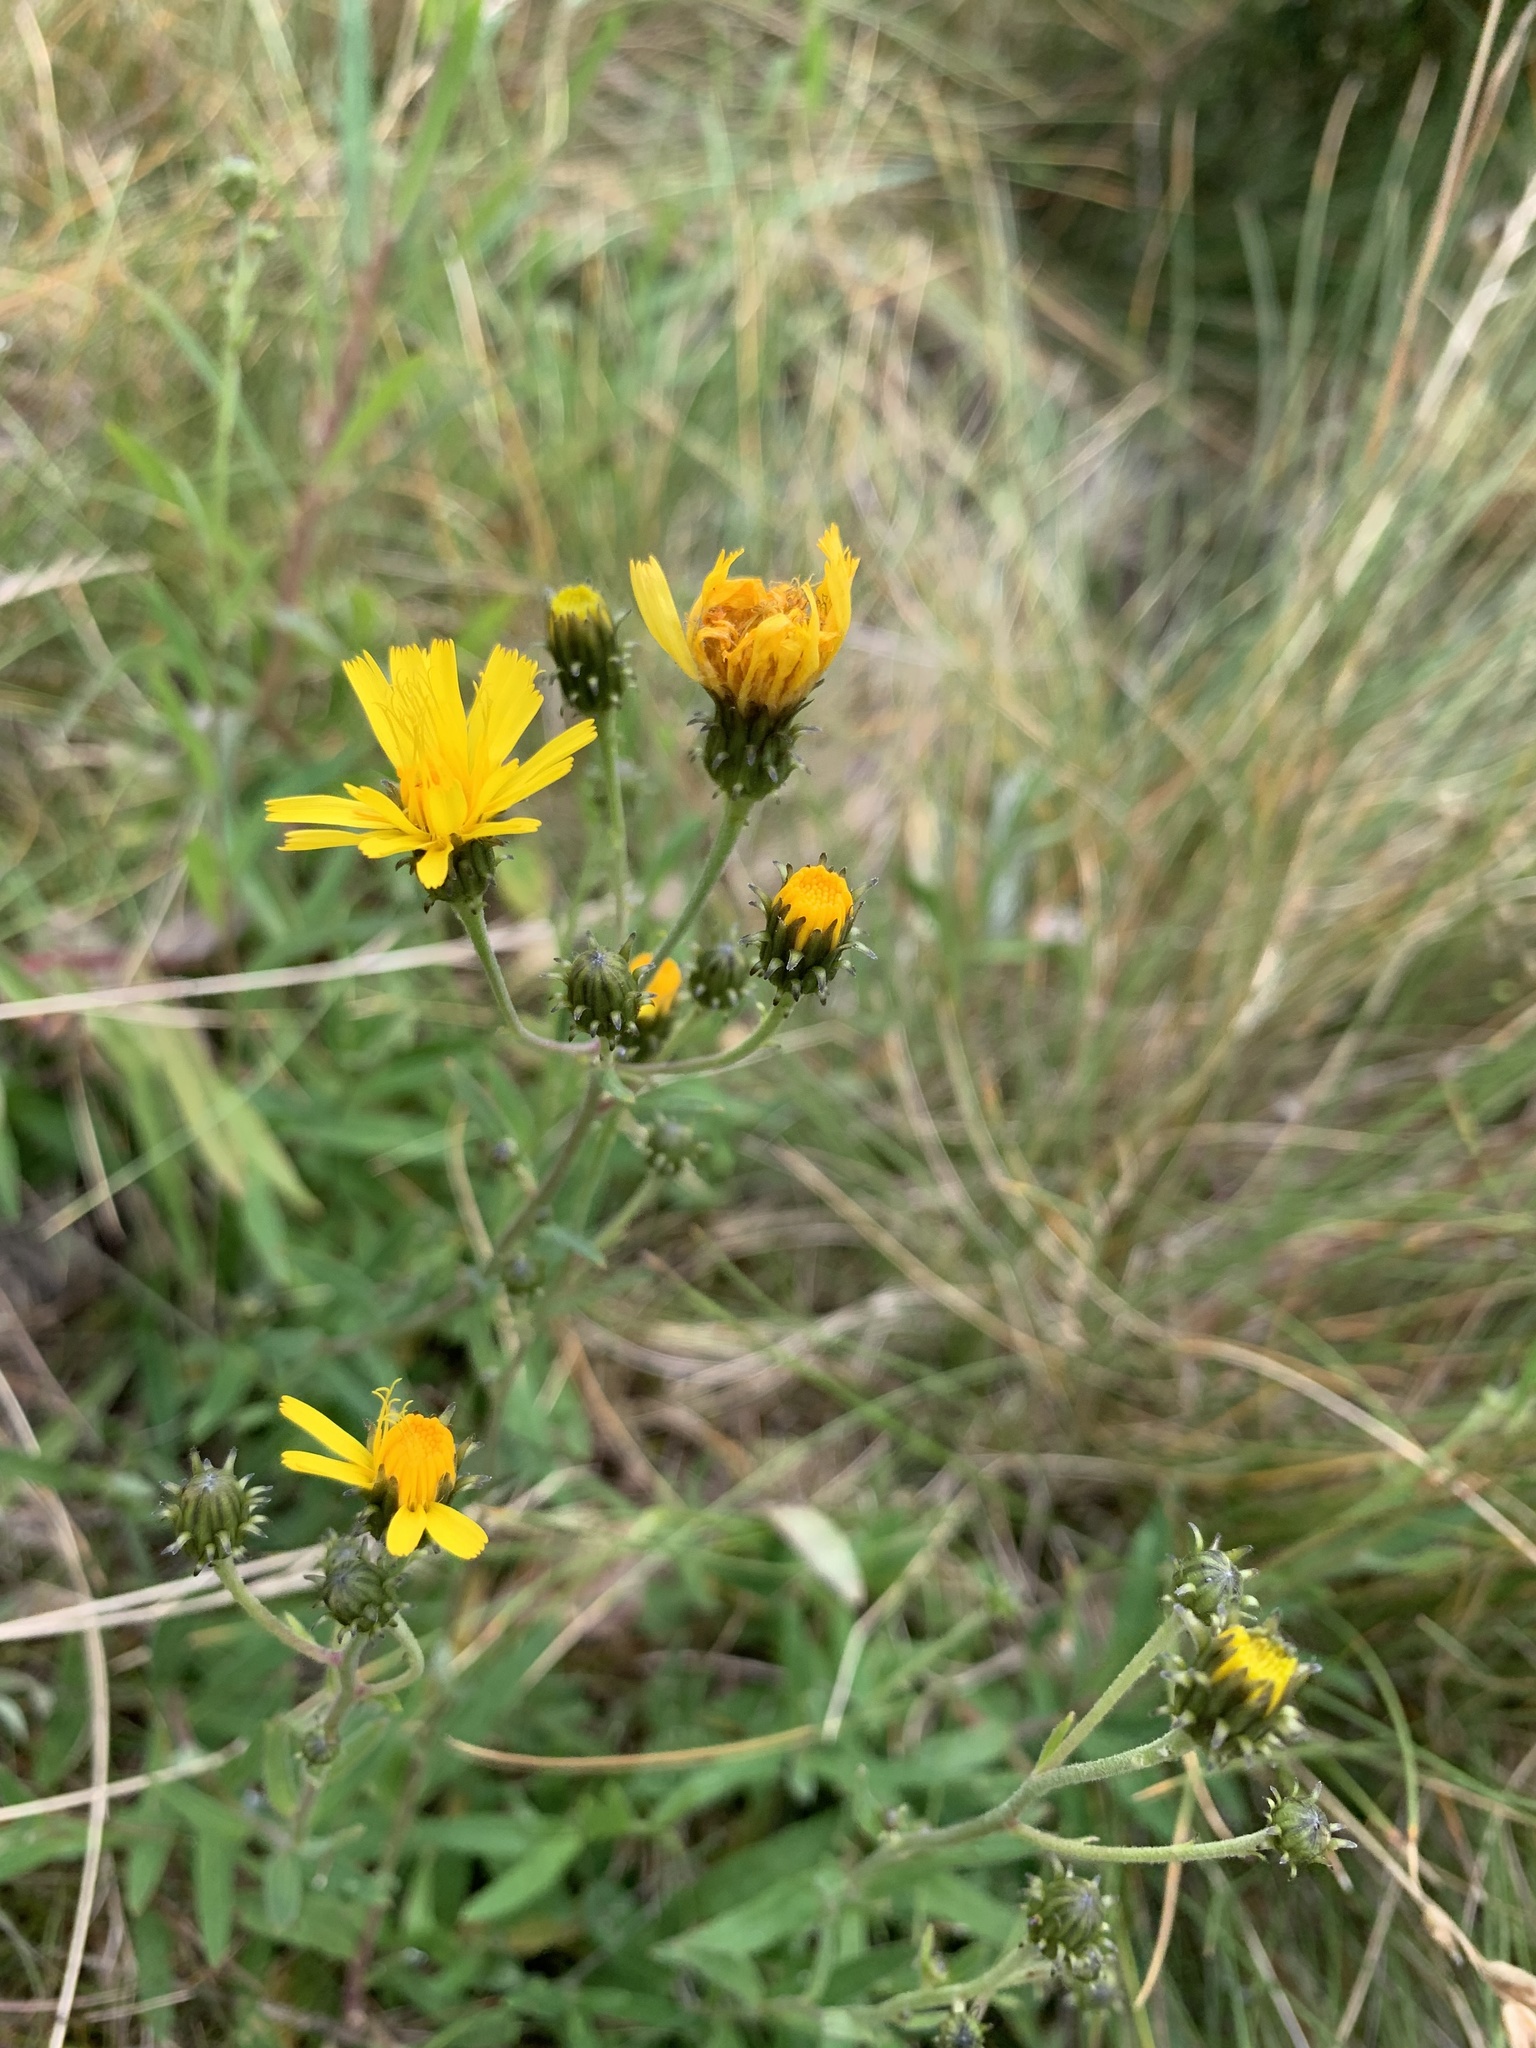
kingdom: Plantae
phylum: Tracheophyta
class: Magnoliopsida
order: Asterales
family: Asteraceae
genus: Hieracium
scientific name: Hieracium umbellatum
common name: Northern hawkweed
